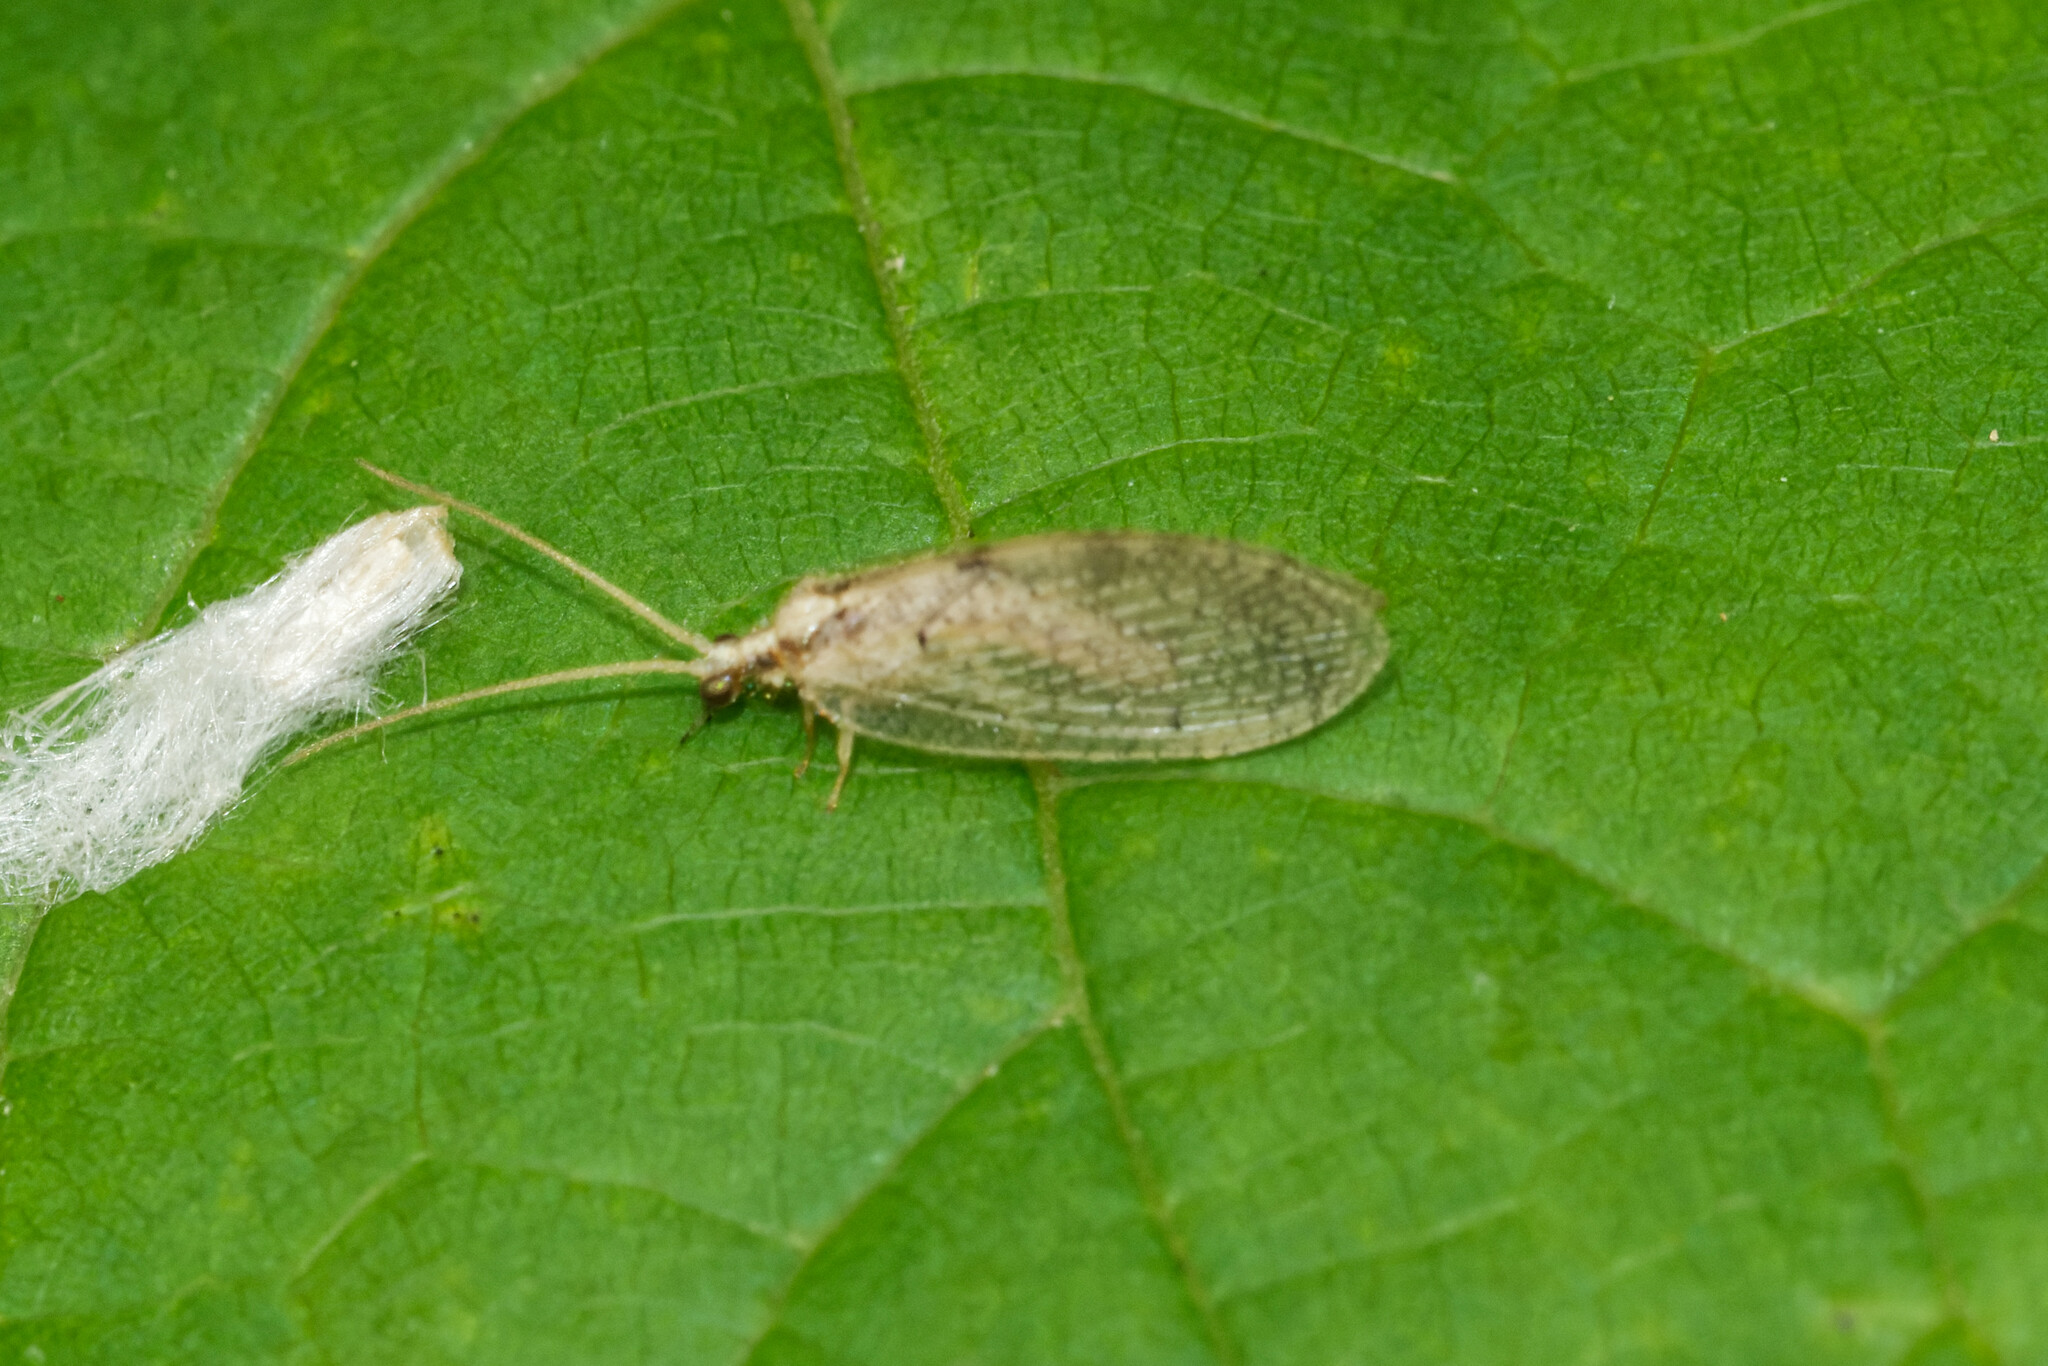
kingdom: Animalia
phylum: Arthropoda
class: Insecta
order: Neuroptera
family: Hemerobiidae
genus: Hemerobius
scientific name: Hemerobius humulinus
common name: Humulin brown lacewing
